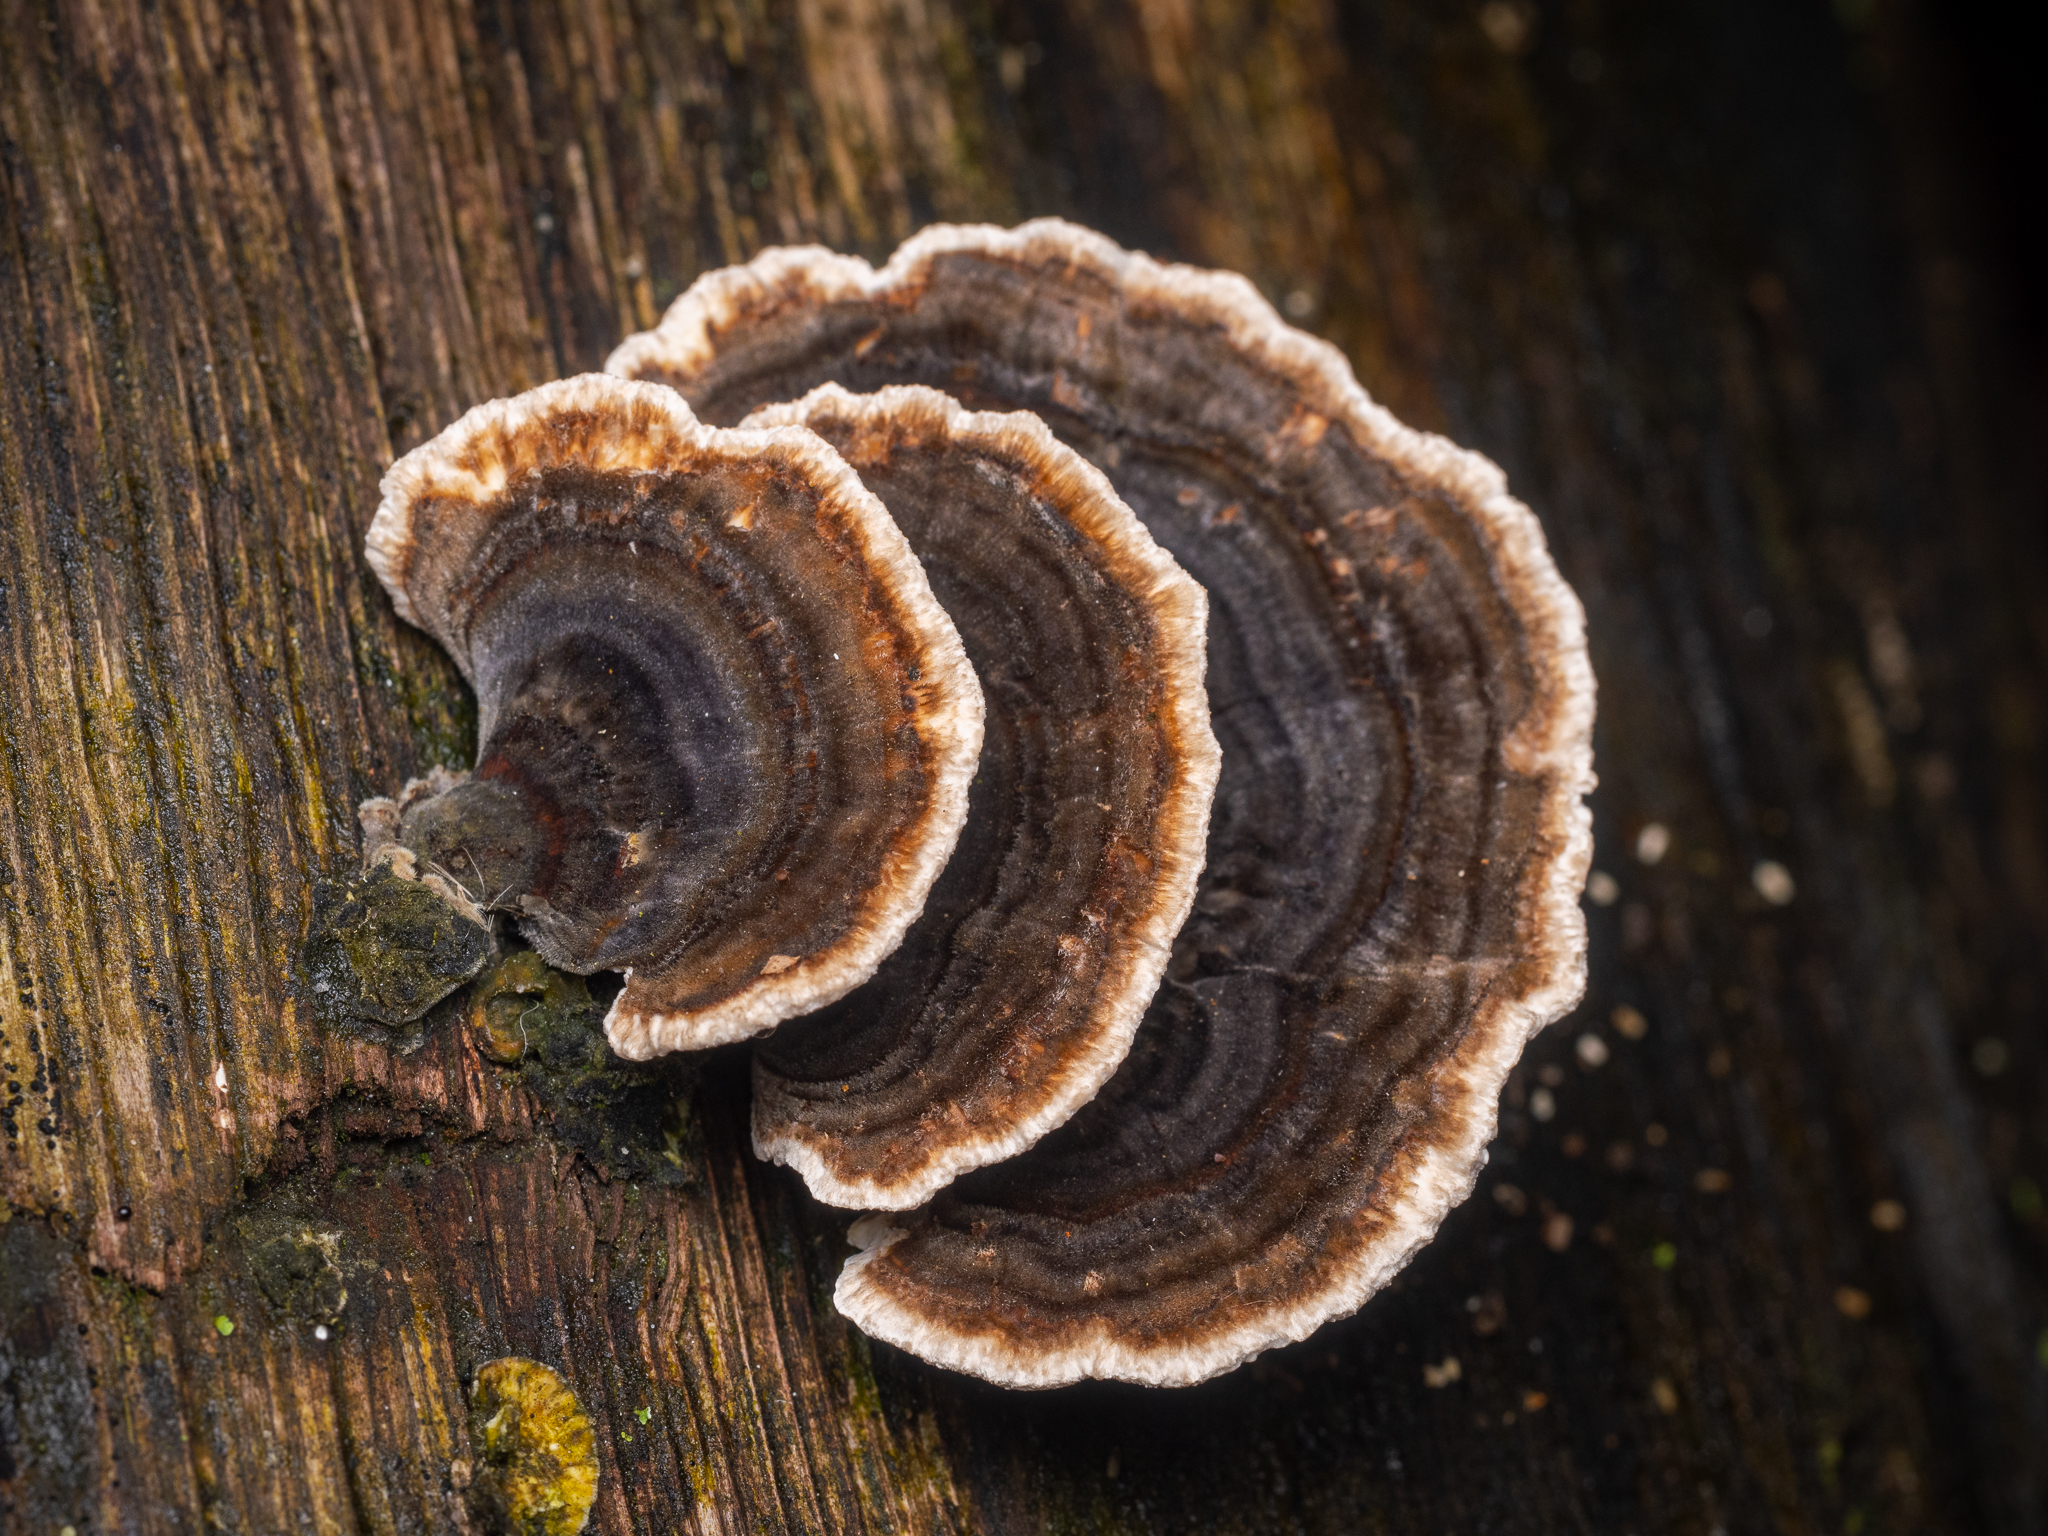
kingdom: Fungi
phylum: Basidiomycota
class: Agaricomycetes
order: Polyporales
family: Polyporaceae
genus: Trametes
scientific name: Trametes versicolor
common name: Turkeytail
